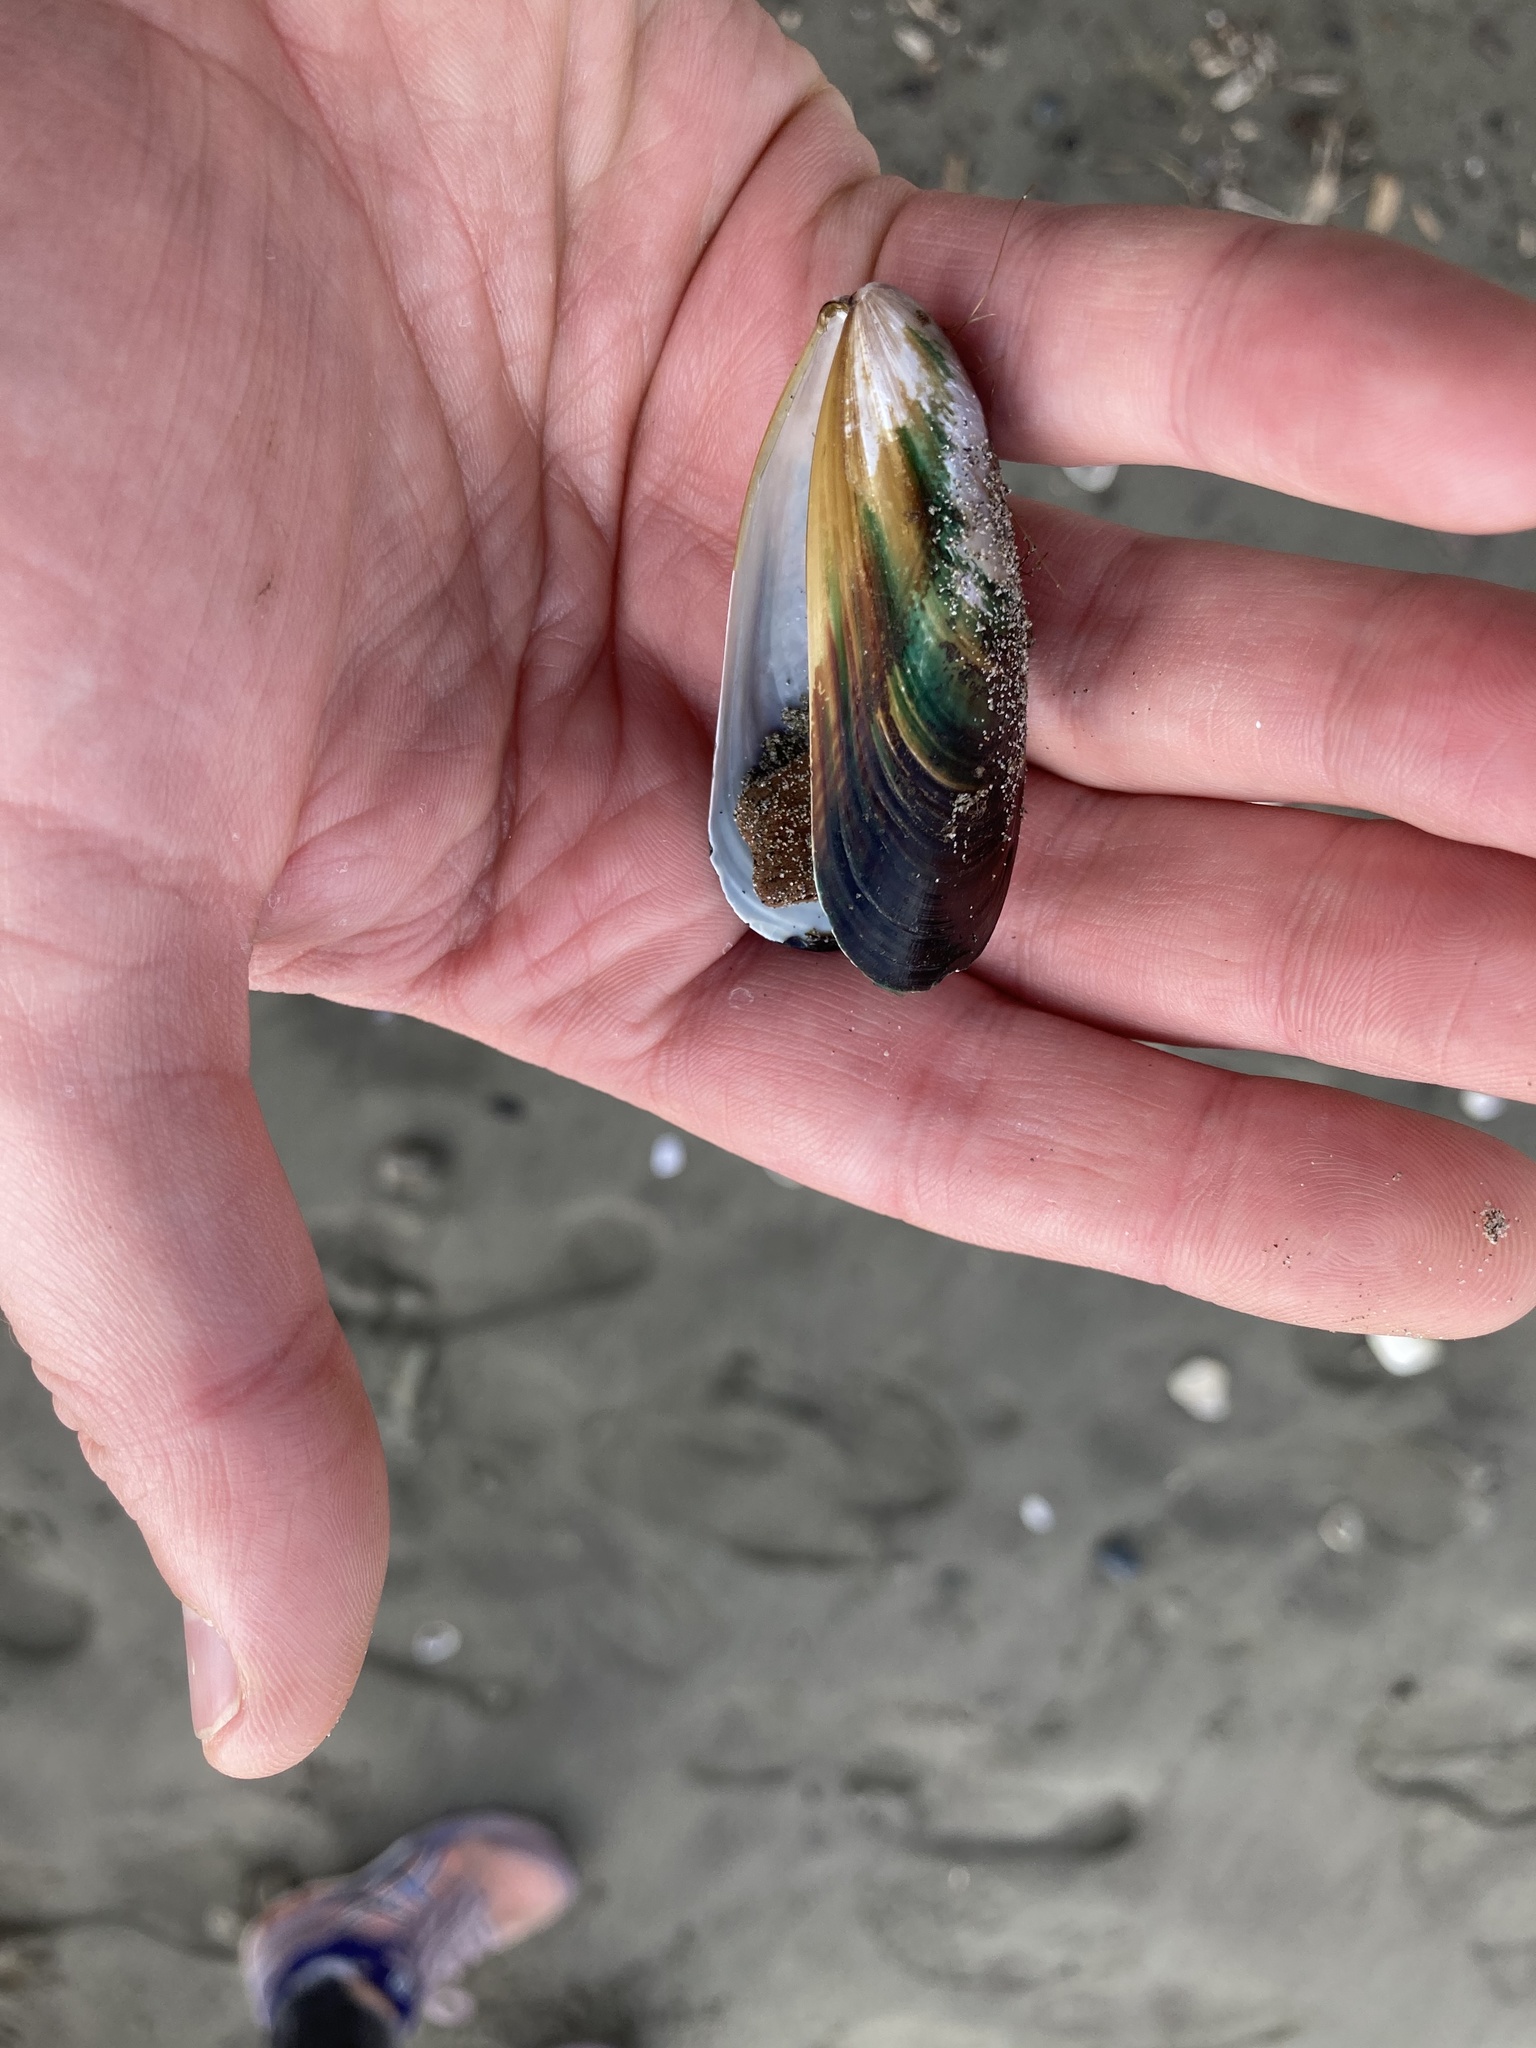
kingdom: Animalia
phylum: Mollusca
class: Bivalvia
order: Mytilida
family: Mytilidae
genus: Perna
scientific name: Perna canaliculus
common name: New zealand greenshelltm
